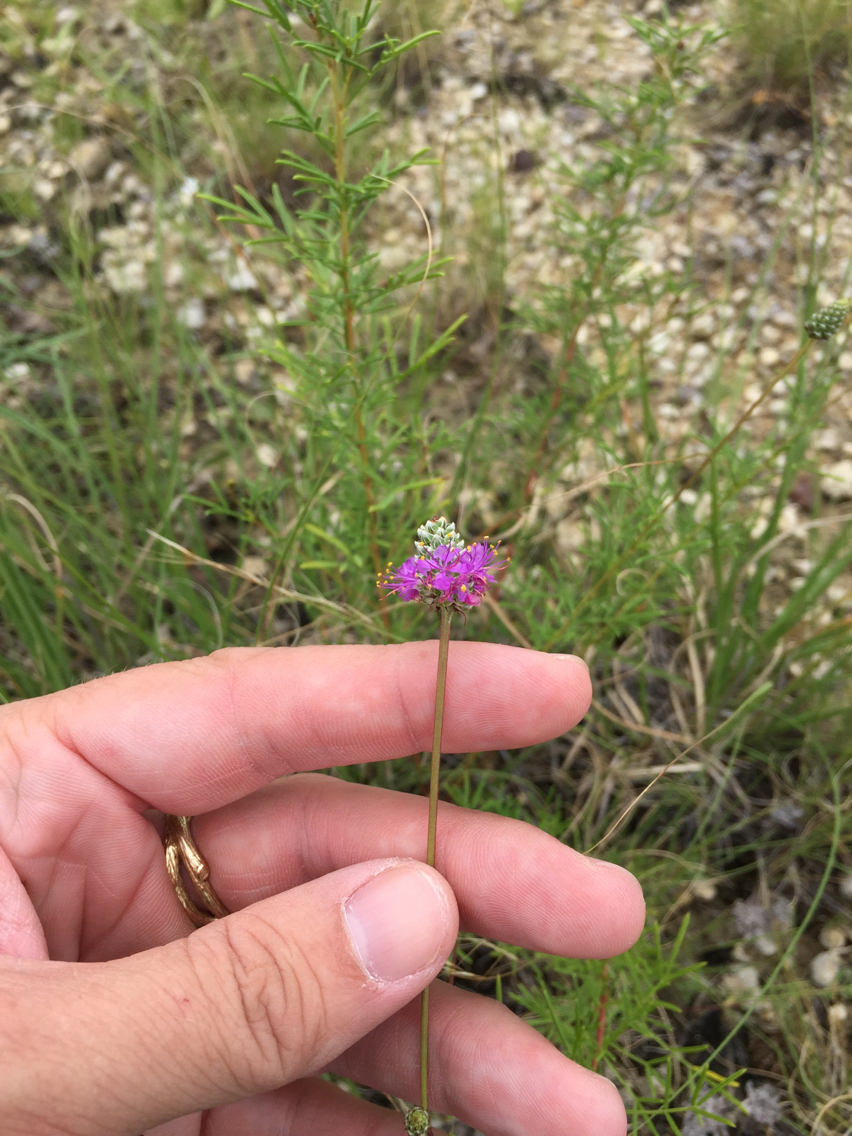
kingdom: Plantae
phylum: Tracheophyta
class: Magnoliopsida
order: Fabales
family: Fabaceae
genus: Dalea
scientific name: Dalea tenuis
